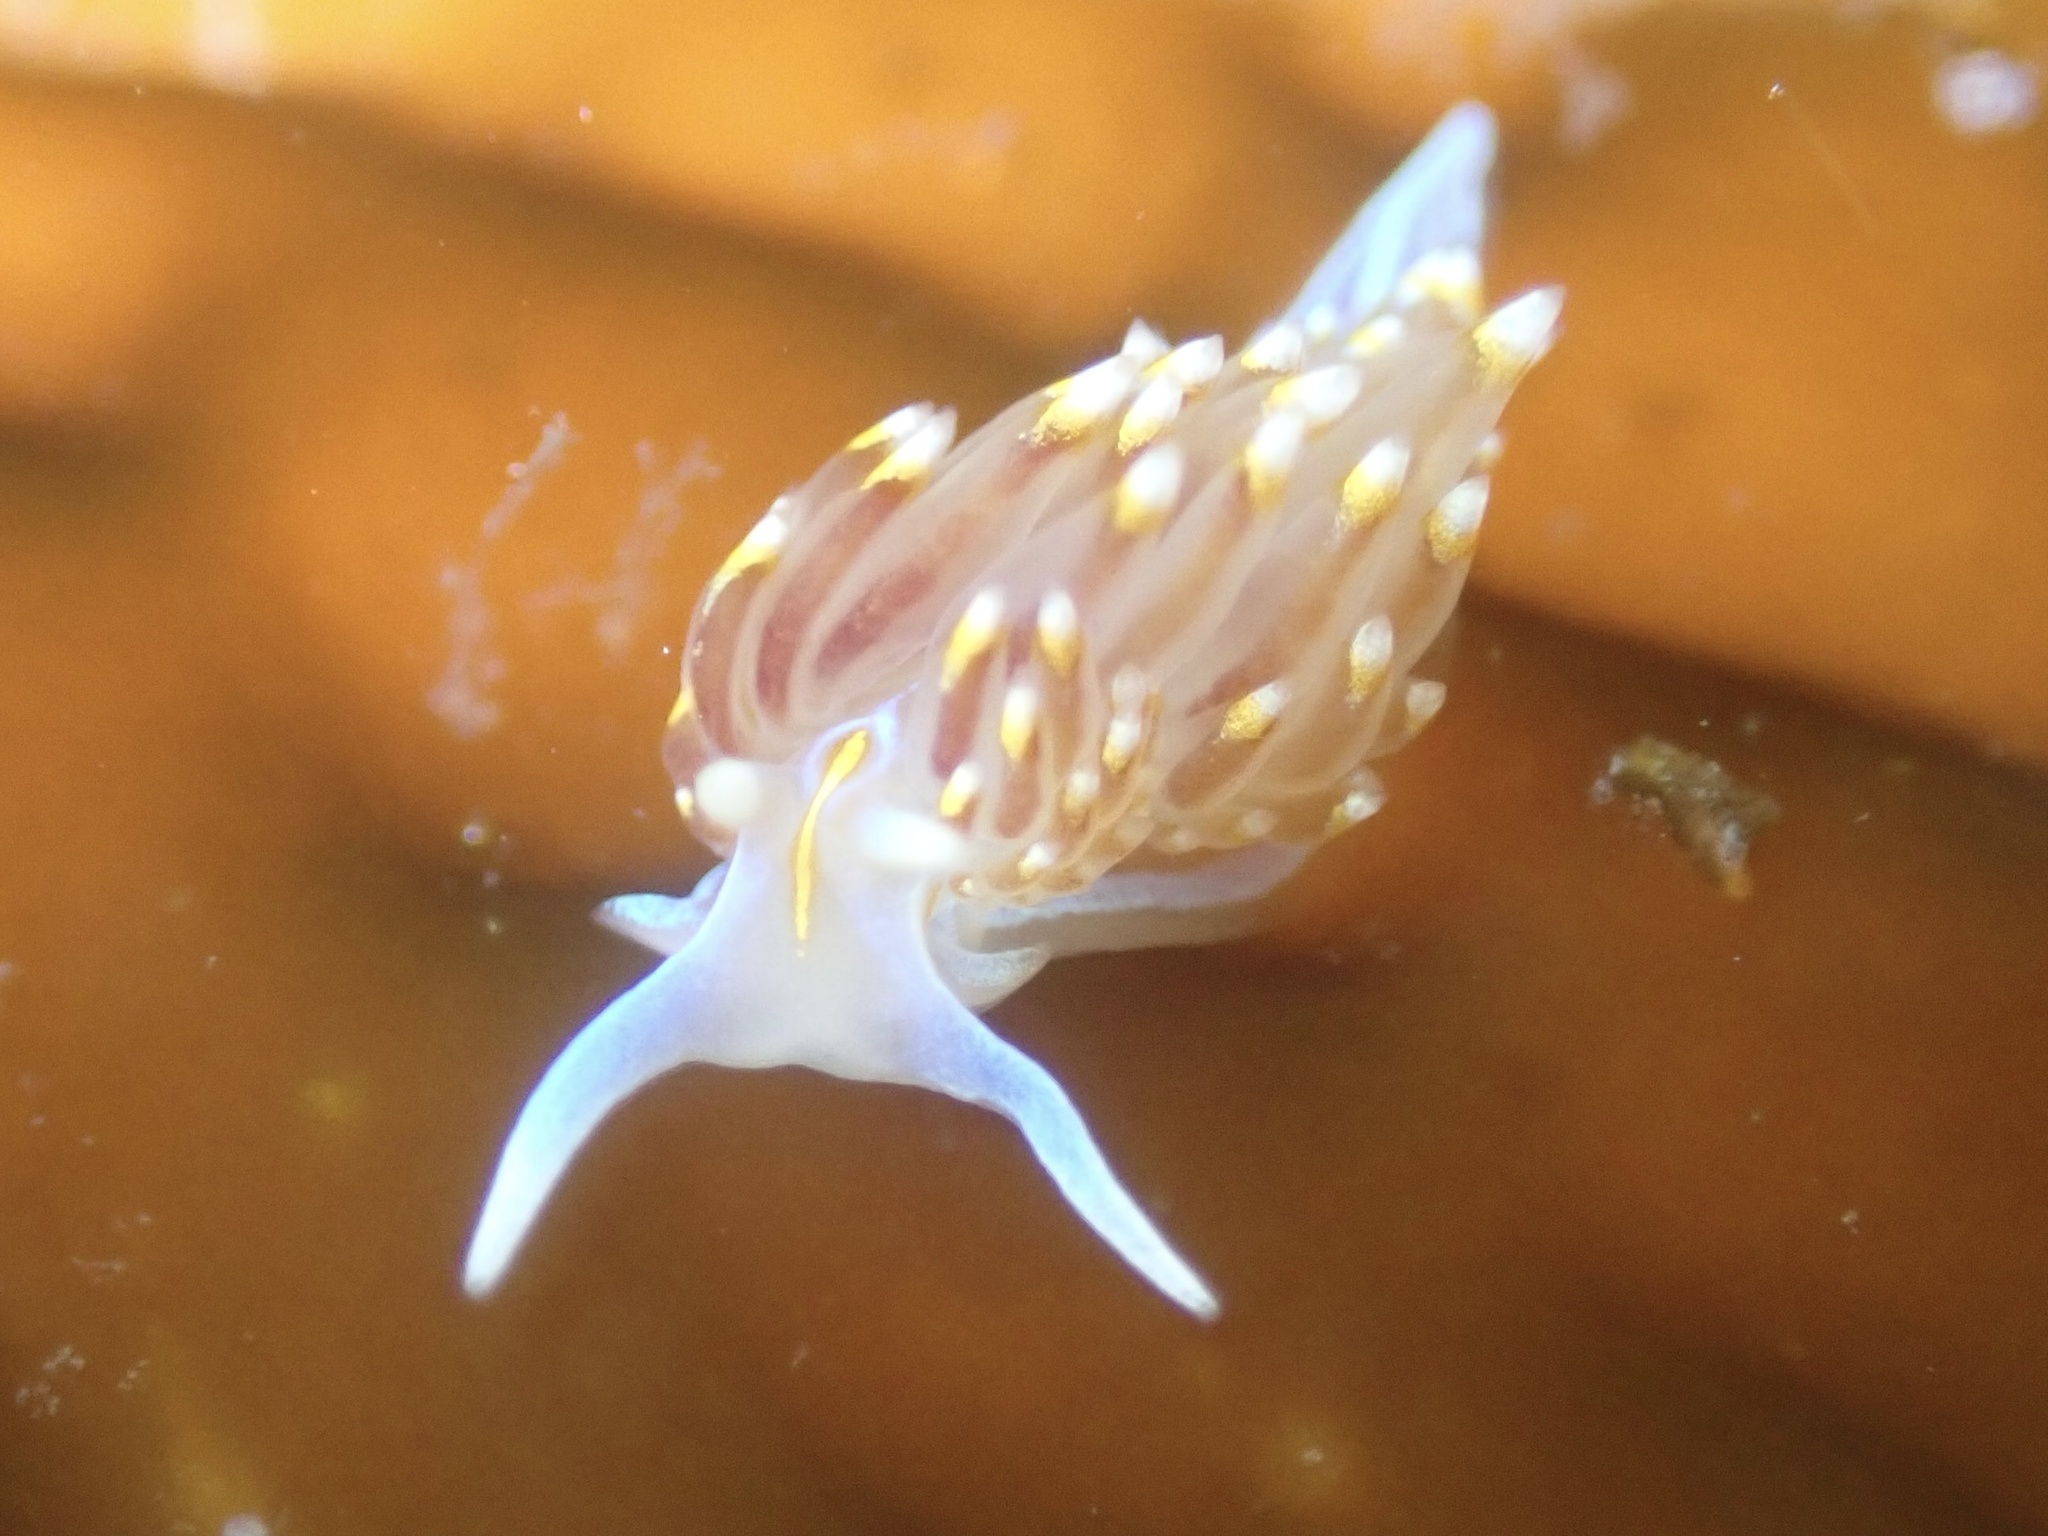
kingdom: Animalia
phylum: Mollusca
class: Gastropoda
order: Nudibranchia
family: Myrrhinidae
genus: Hermissenda
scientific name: Hermissenda opalescens
